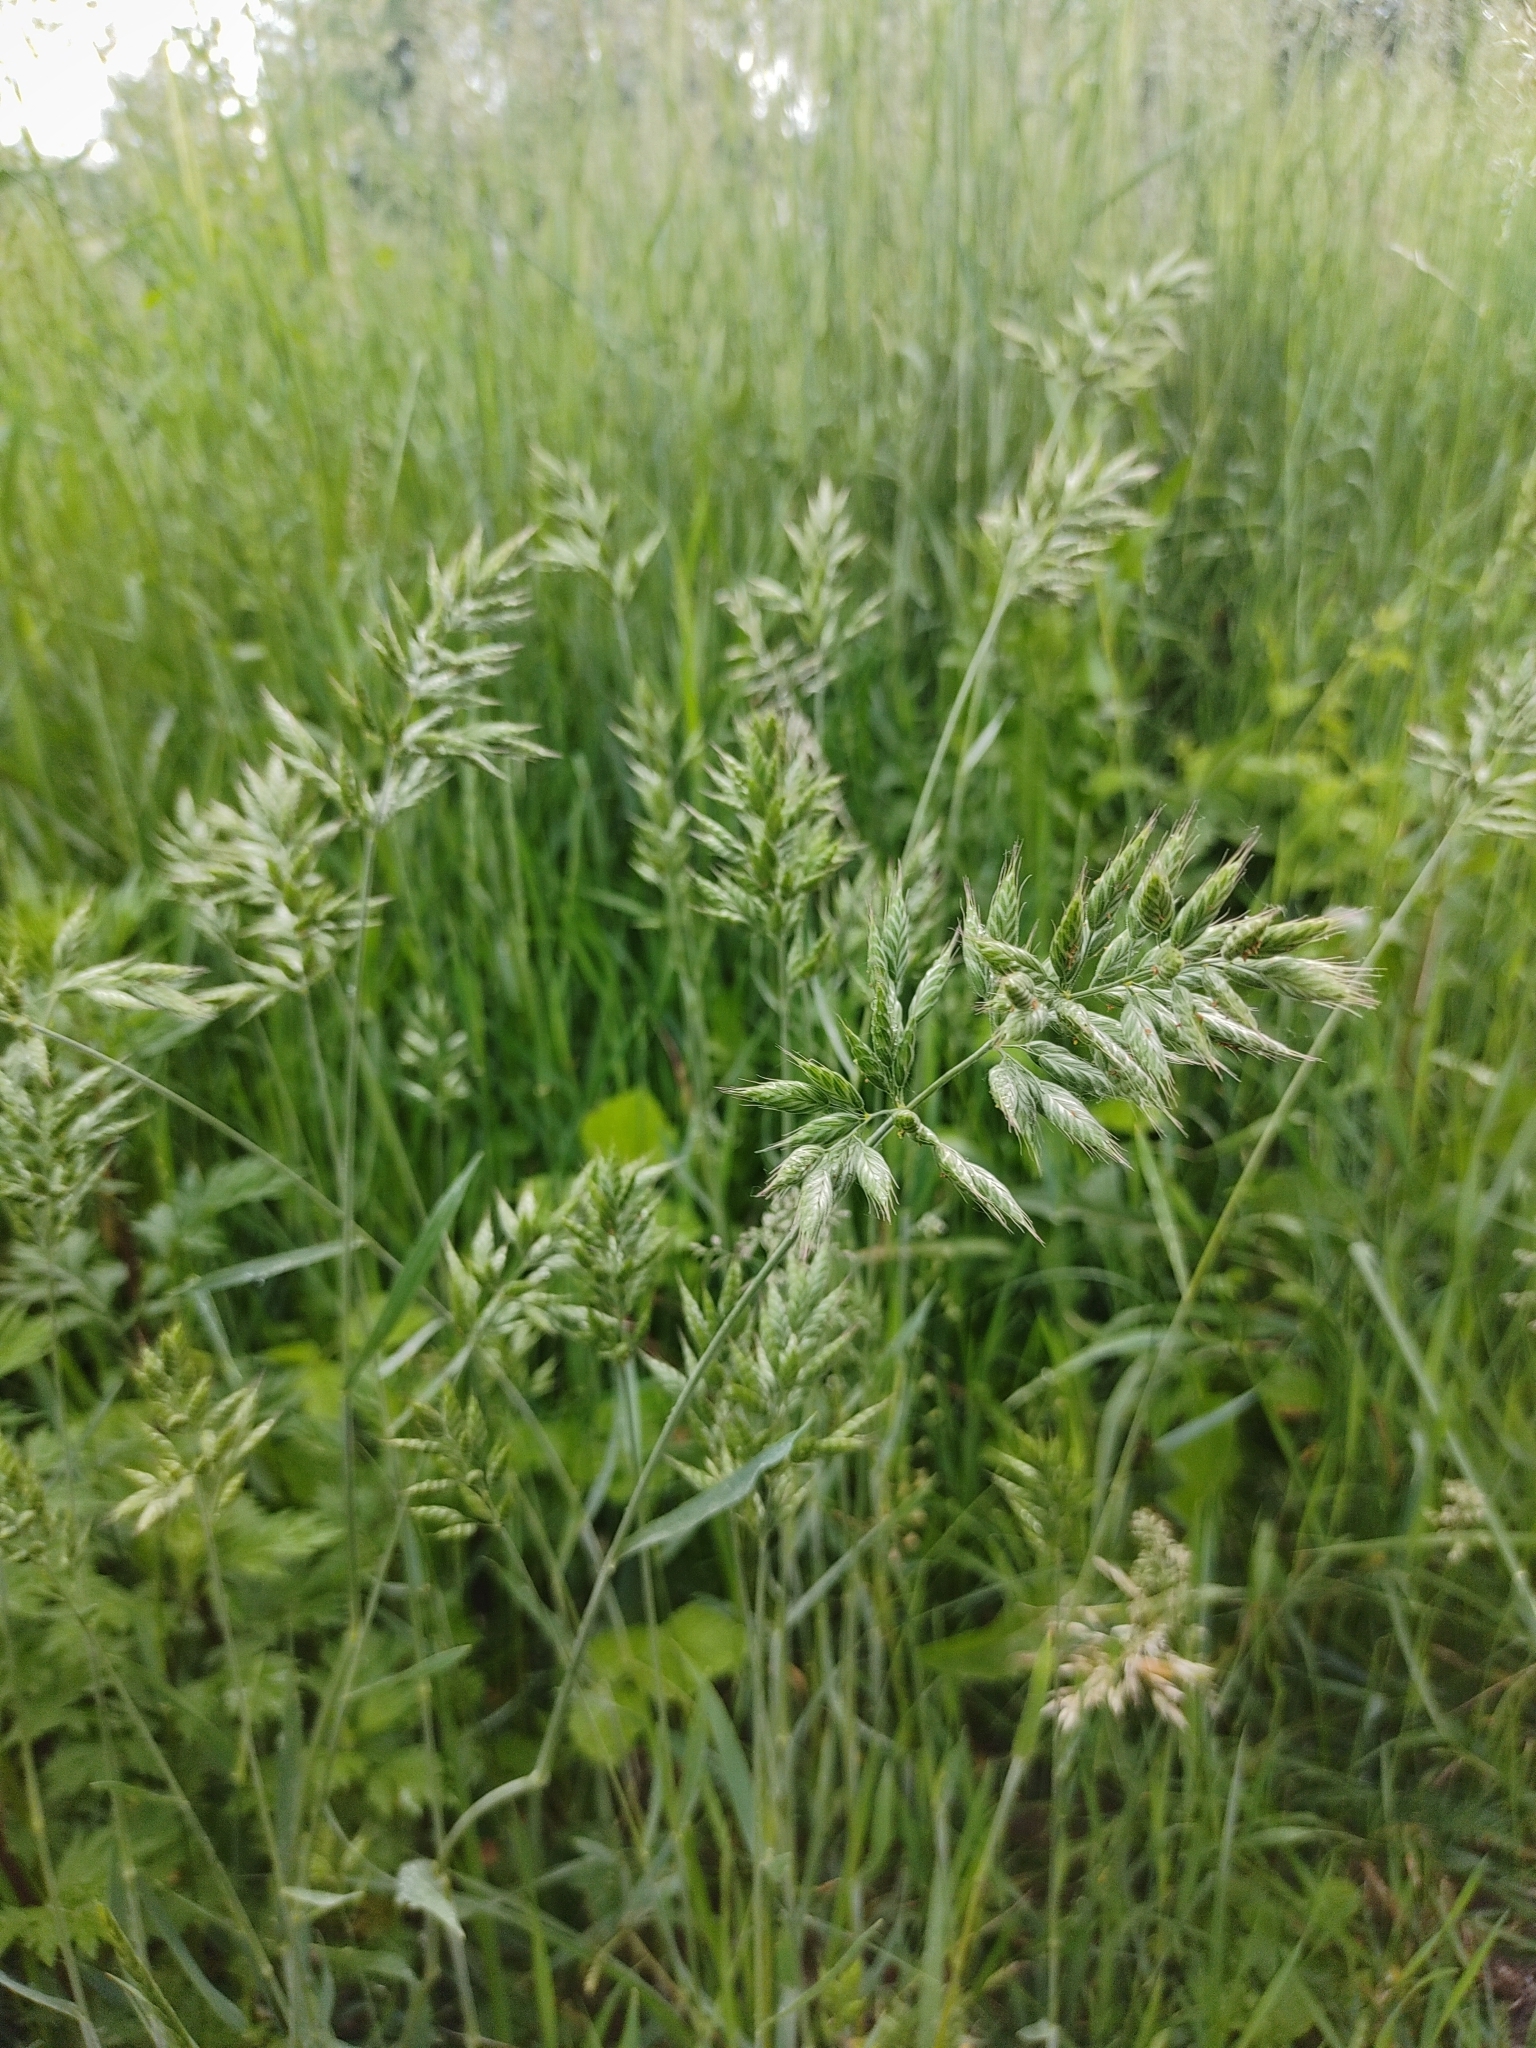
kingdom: Plantae
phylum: Tracheophyta
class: Liliopsida
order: Poales
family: Poaceae
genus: Bromus
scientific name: Bromus hordeaceus
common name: Soft brome
